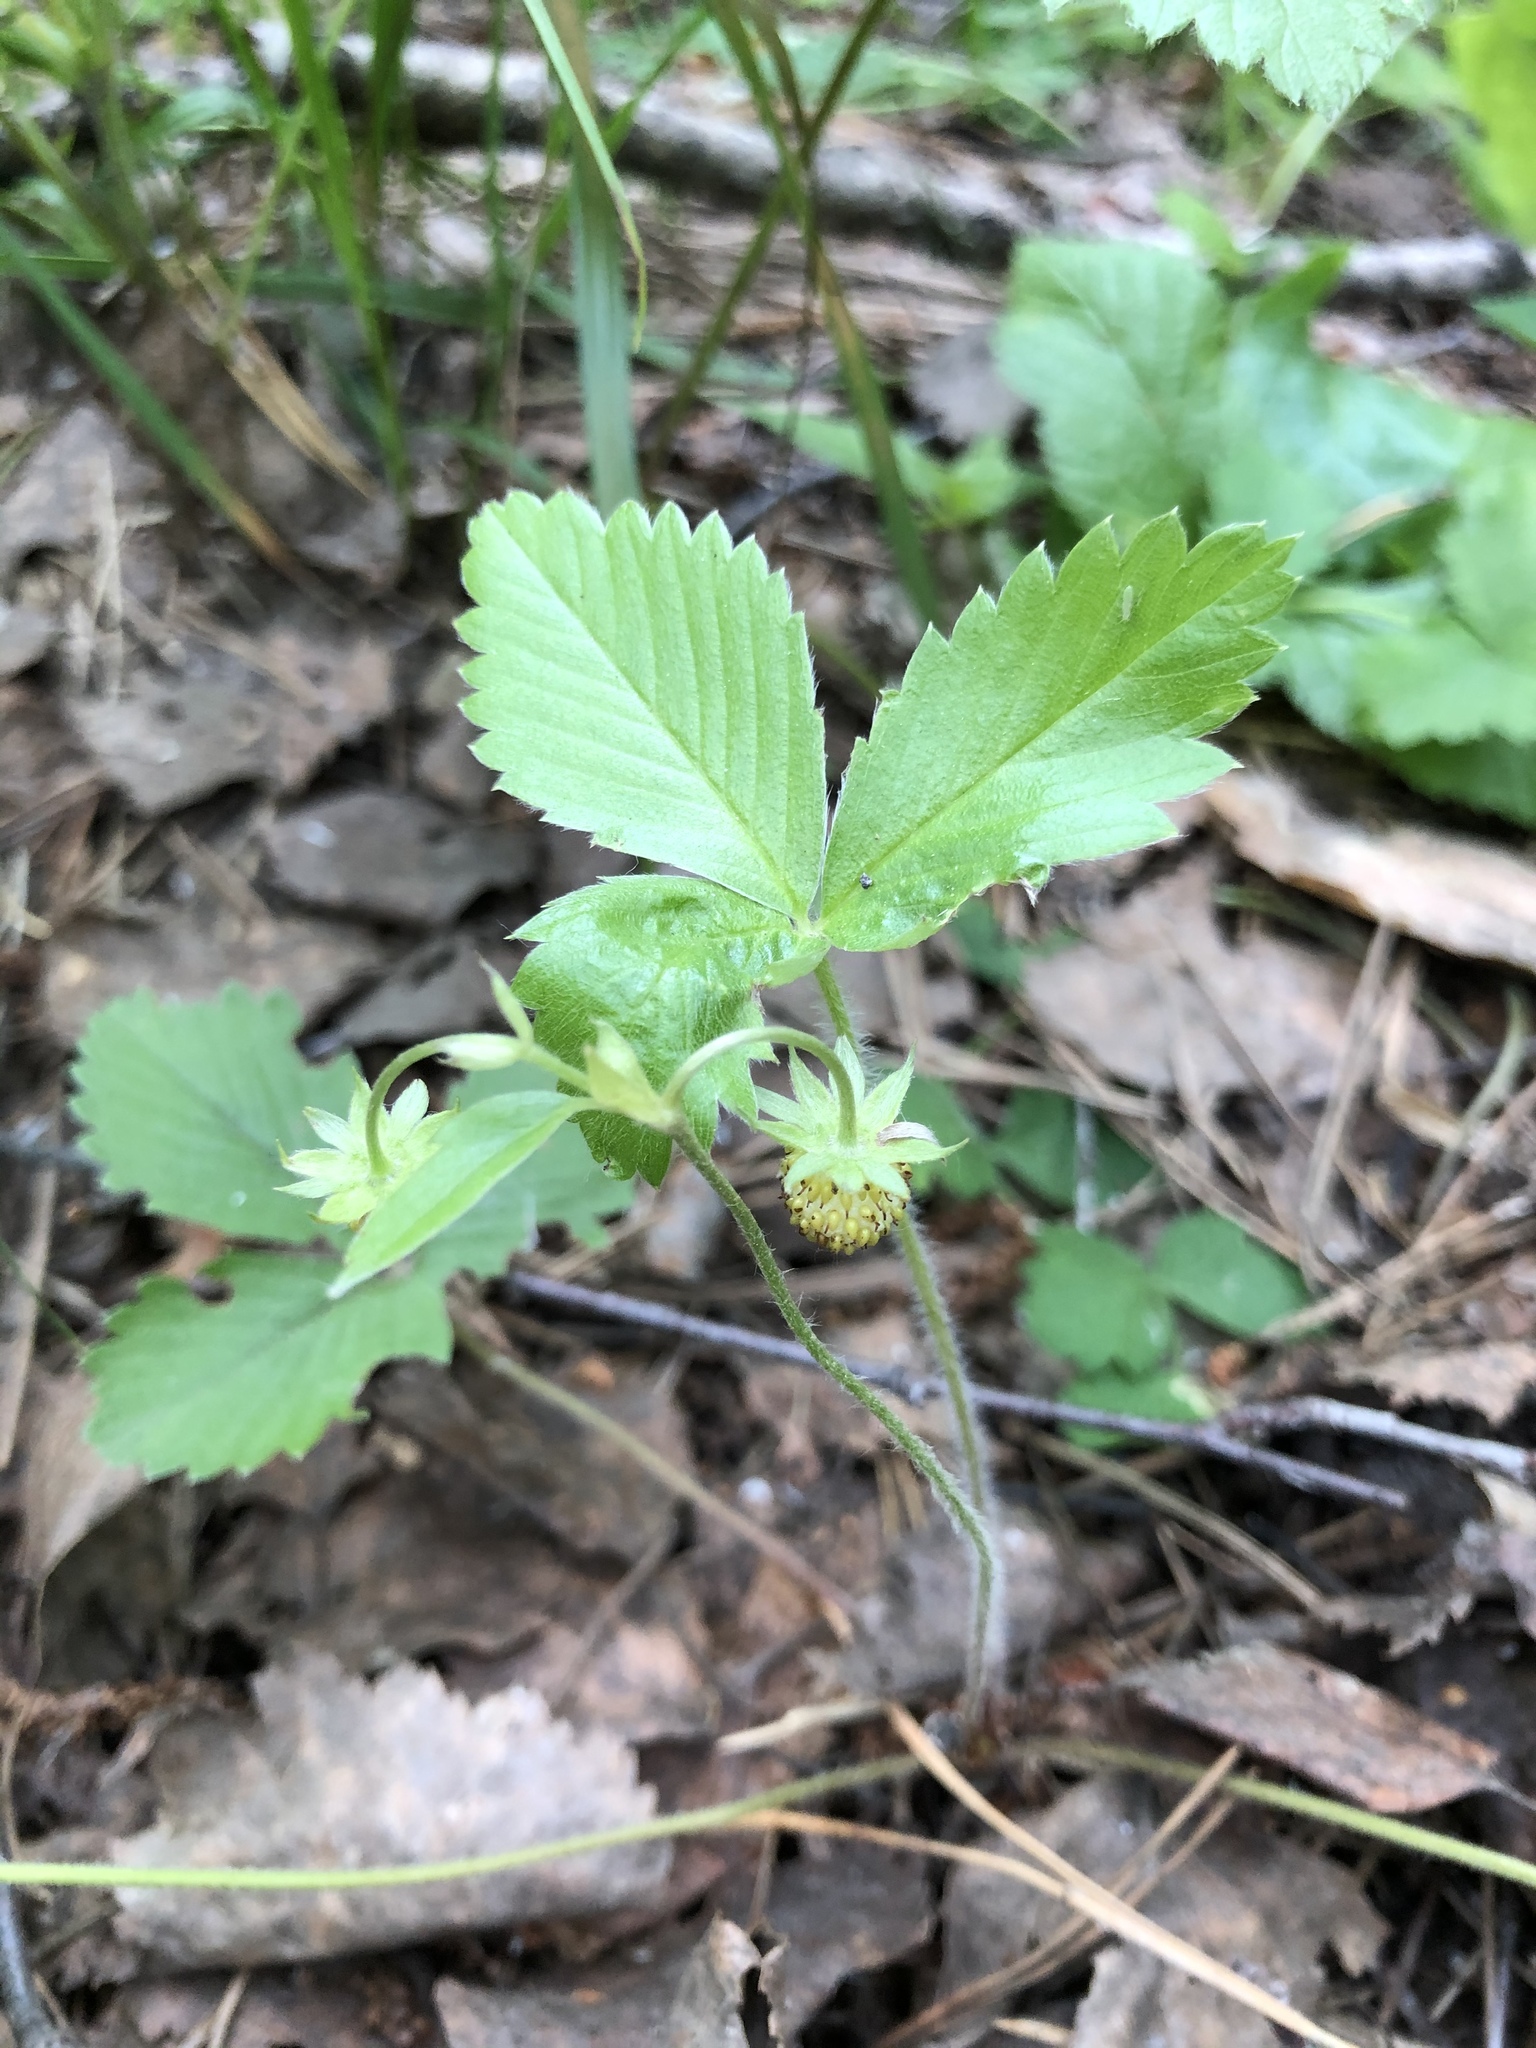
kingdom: Plantae
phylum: Tracheophyta
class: Magnoliopsida
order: Rosales
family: Rosaceae
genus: Fragaria
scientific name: Fragaria vesca
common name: Wild strawberry
